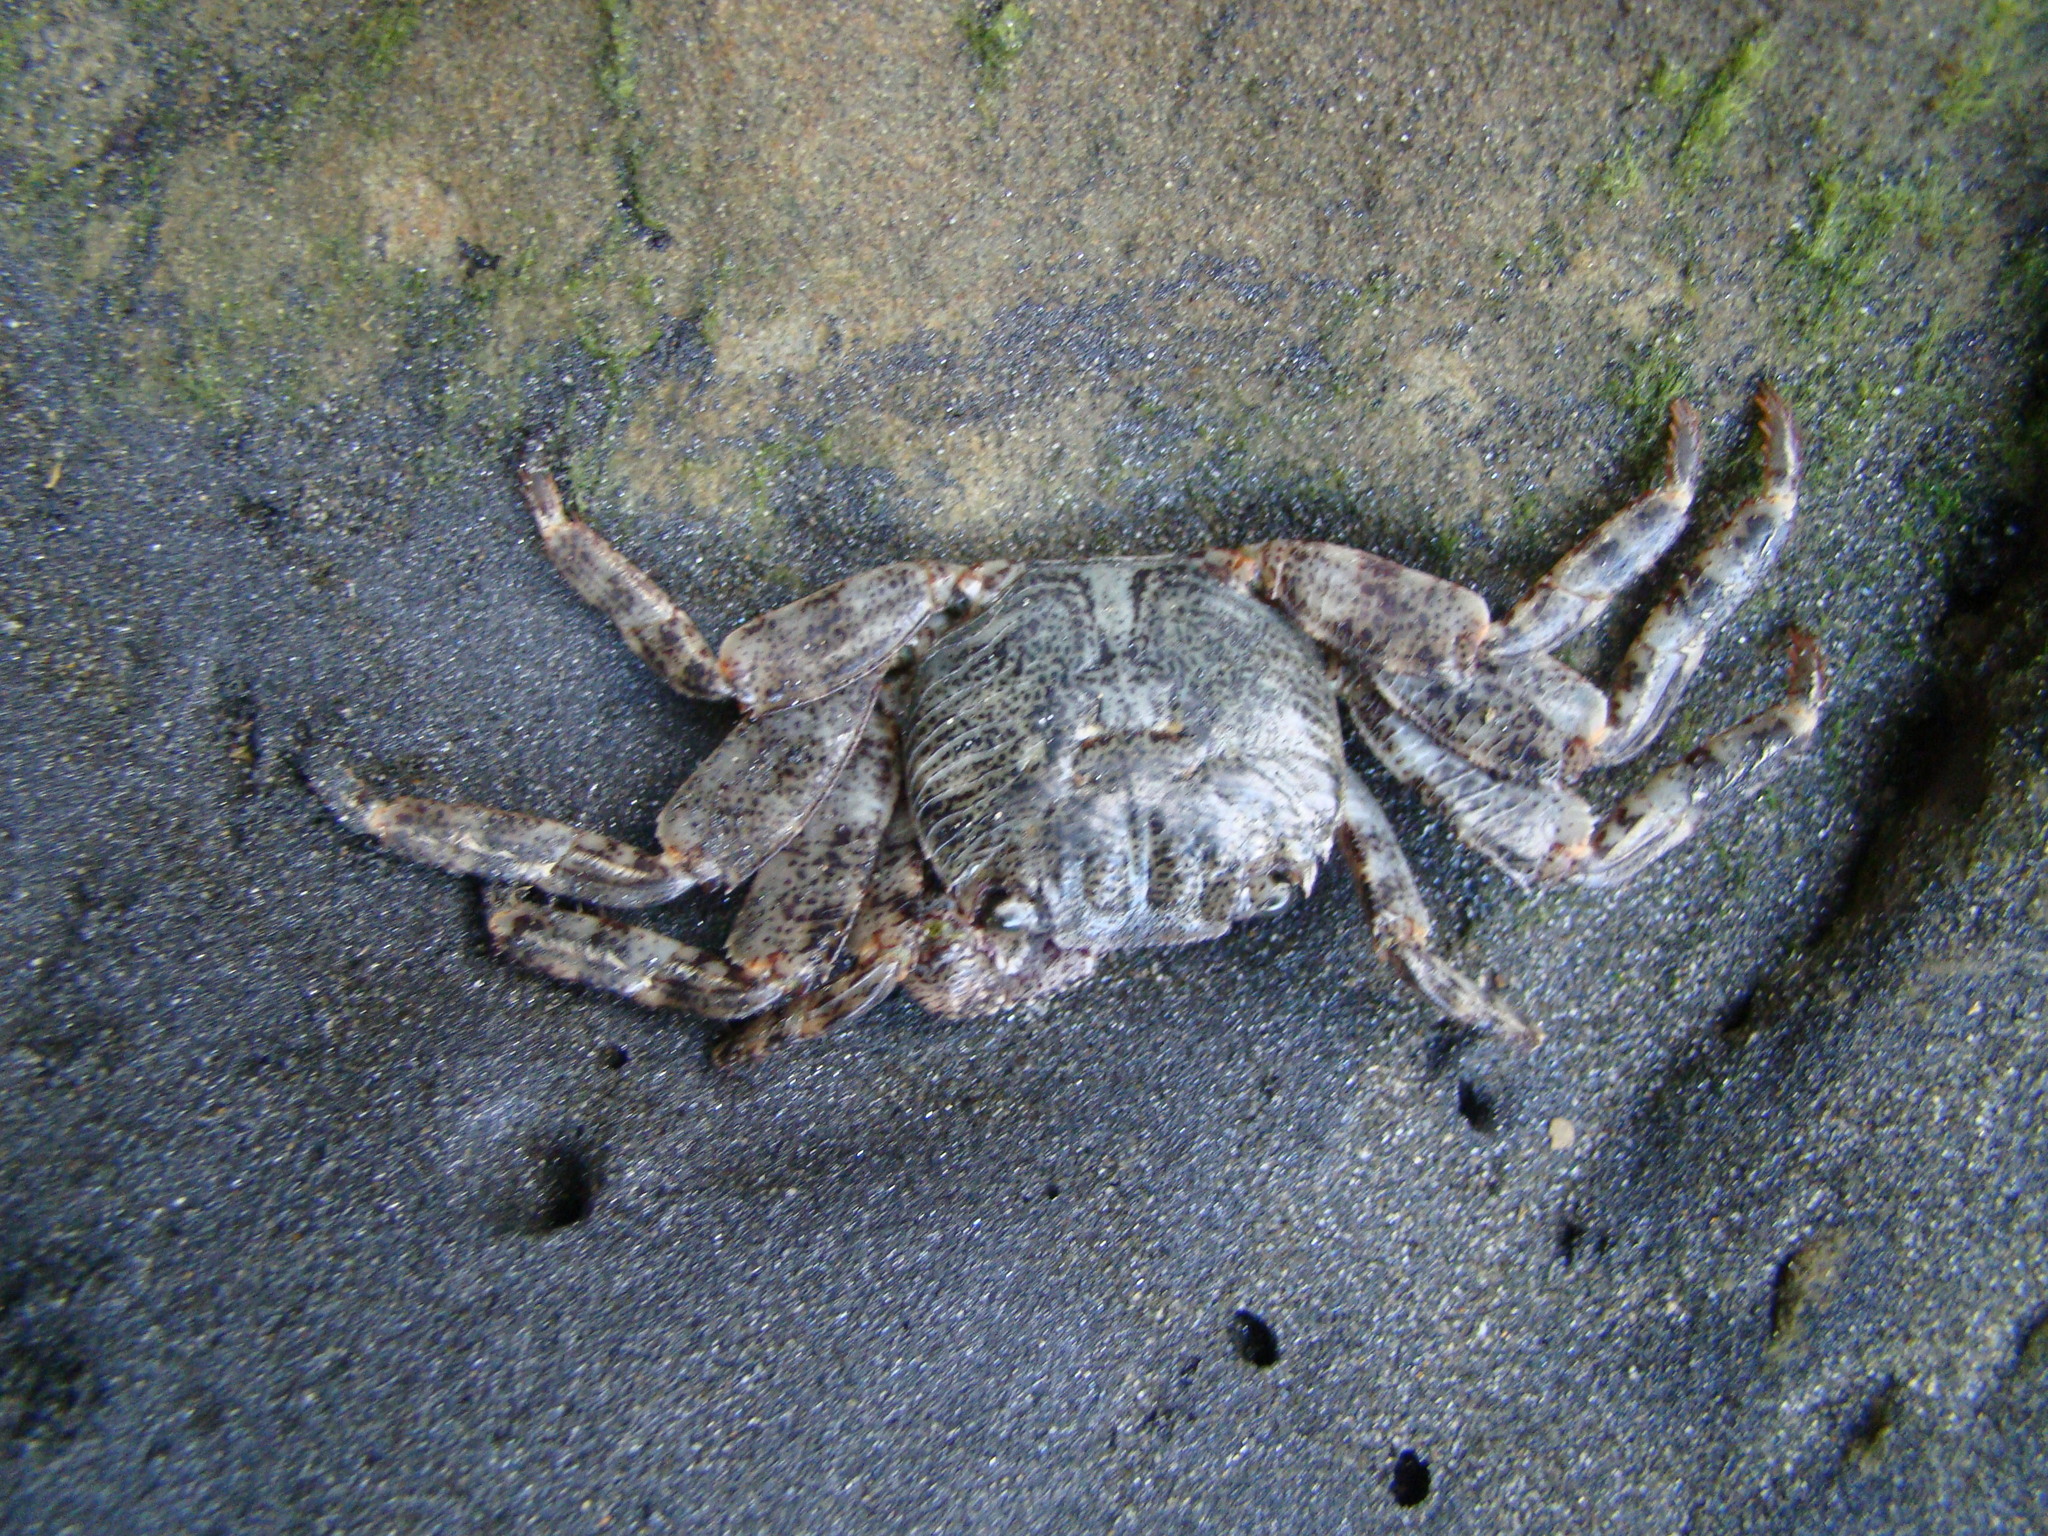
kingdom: Animalia
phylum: Arthropoda
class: Malacostraca
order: Decapoda
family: Grapsidae
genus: Leptograpsus
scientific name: Leptograpsus variegatus
